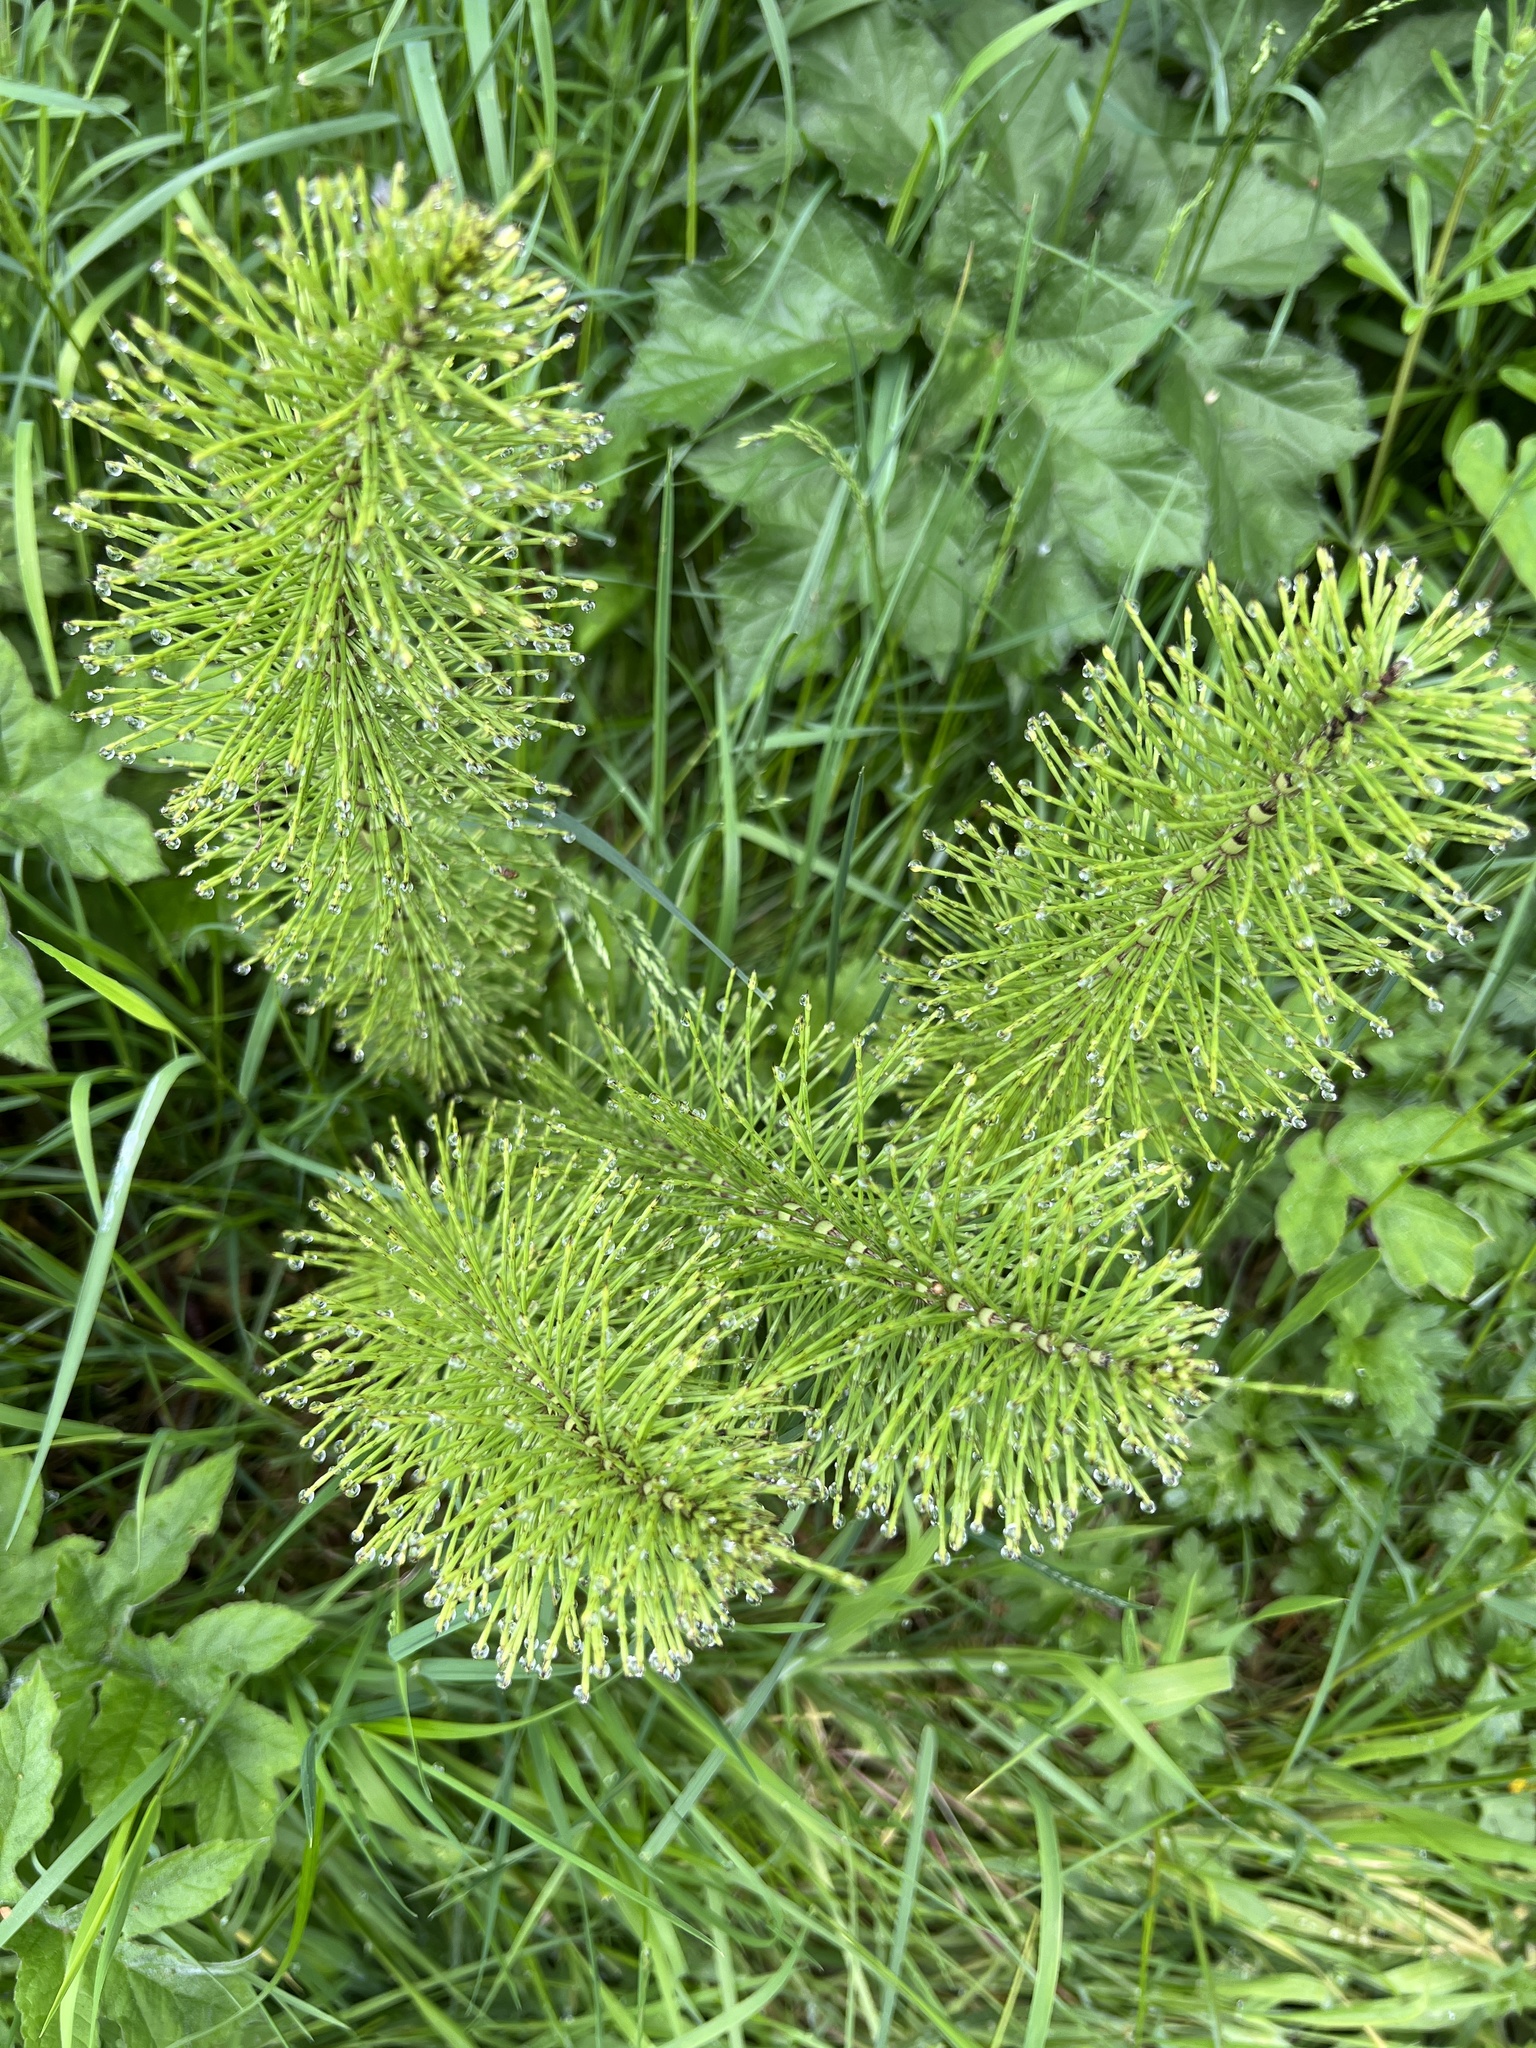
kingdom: Plantae
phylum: Tracheophyta
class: Polypodiopsida
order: Equisetales
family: Equisetaceae
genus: Equisetum
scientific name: Equisetum telmateia
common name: Great horsetail
